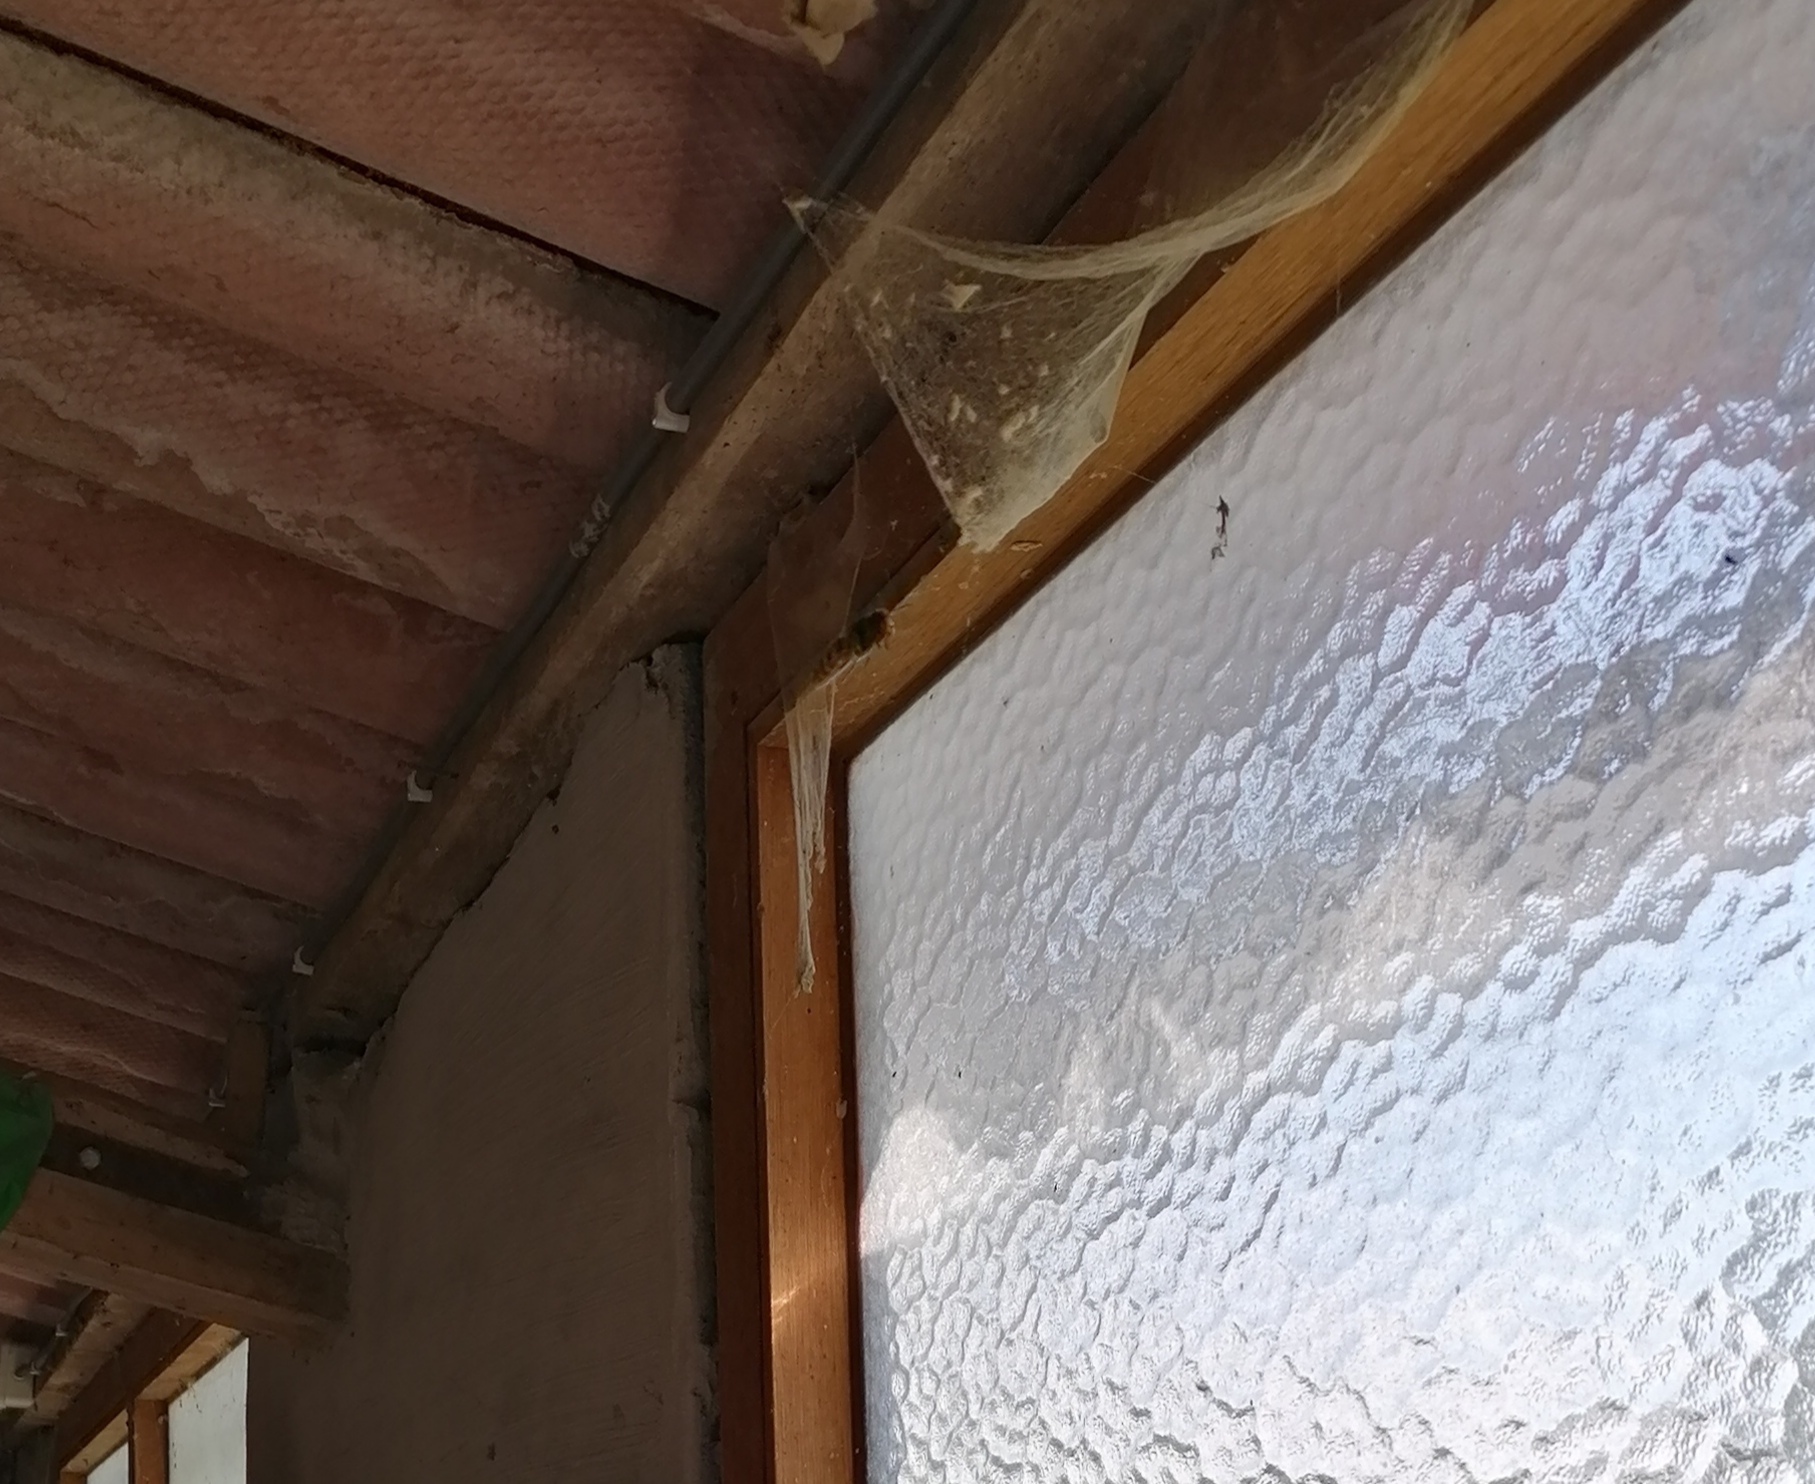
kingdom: Animalia
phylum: Arthropoda
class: Insecta
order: Hymenoptera
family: Vespidae
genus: Vespa
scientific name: Vespa crabro
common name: Hornet
